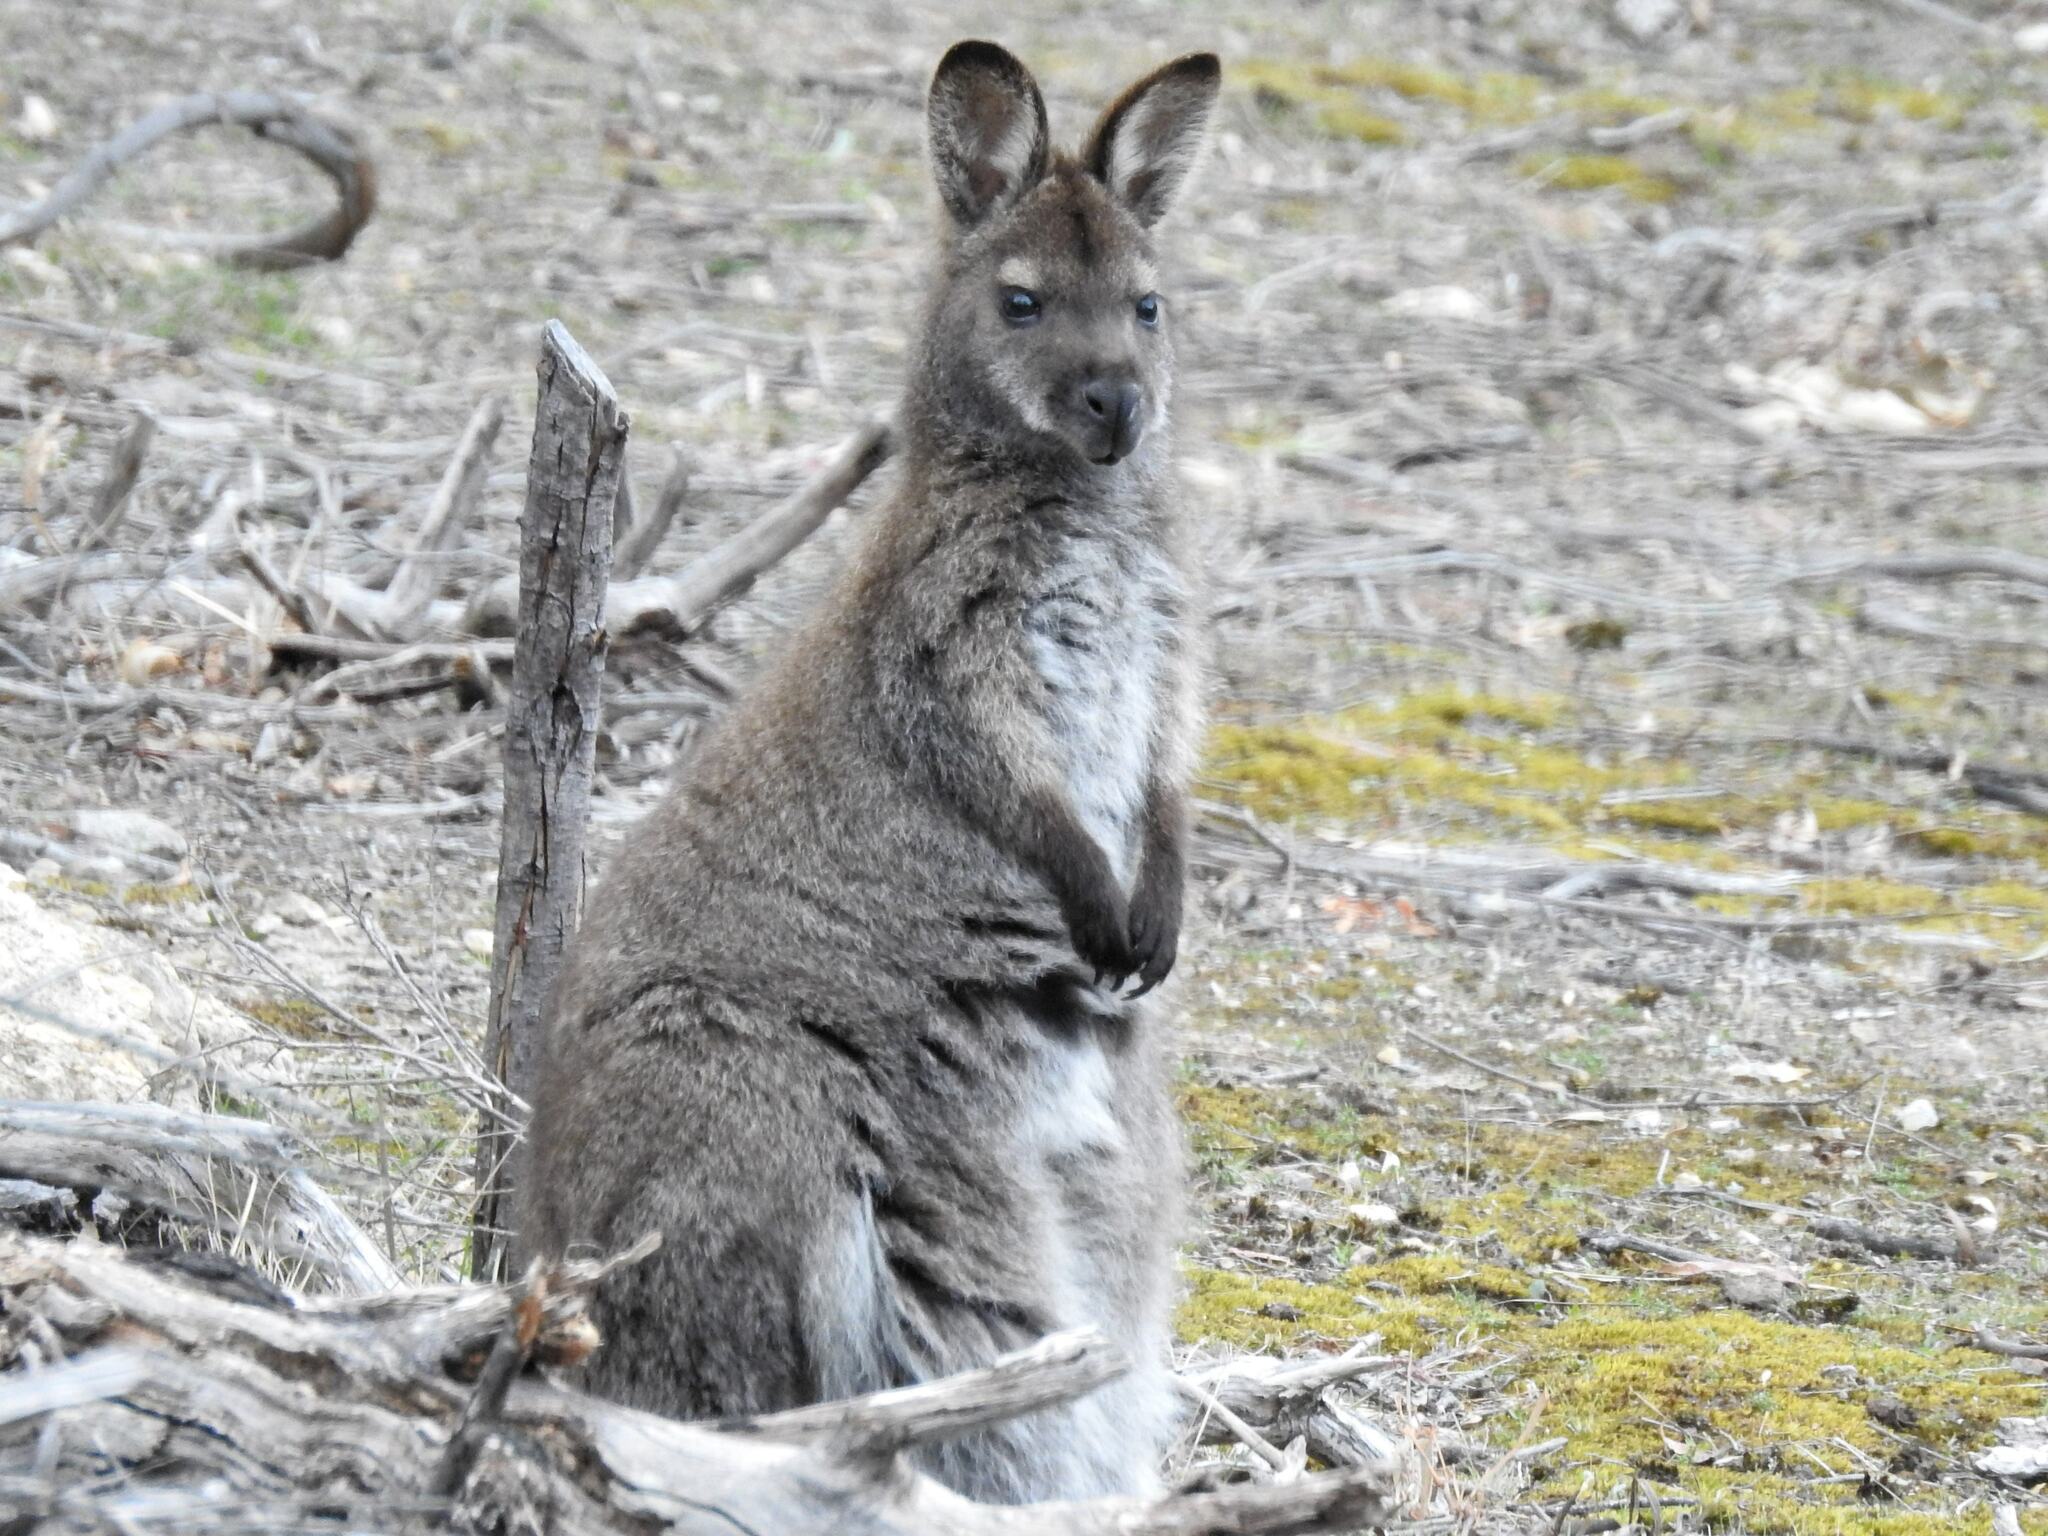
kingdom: Animalia
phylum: Chordata
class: Mammalia
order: Diprotodontia
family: Macropodidae
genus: Notamacropus
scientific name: Notamacropus rufogriseus
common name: Red-necked wallaby
